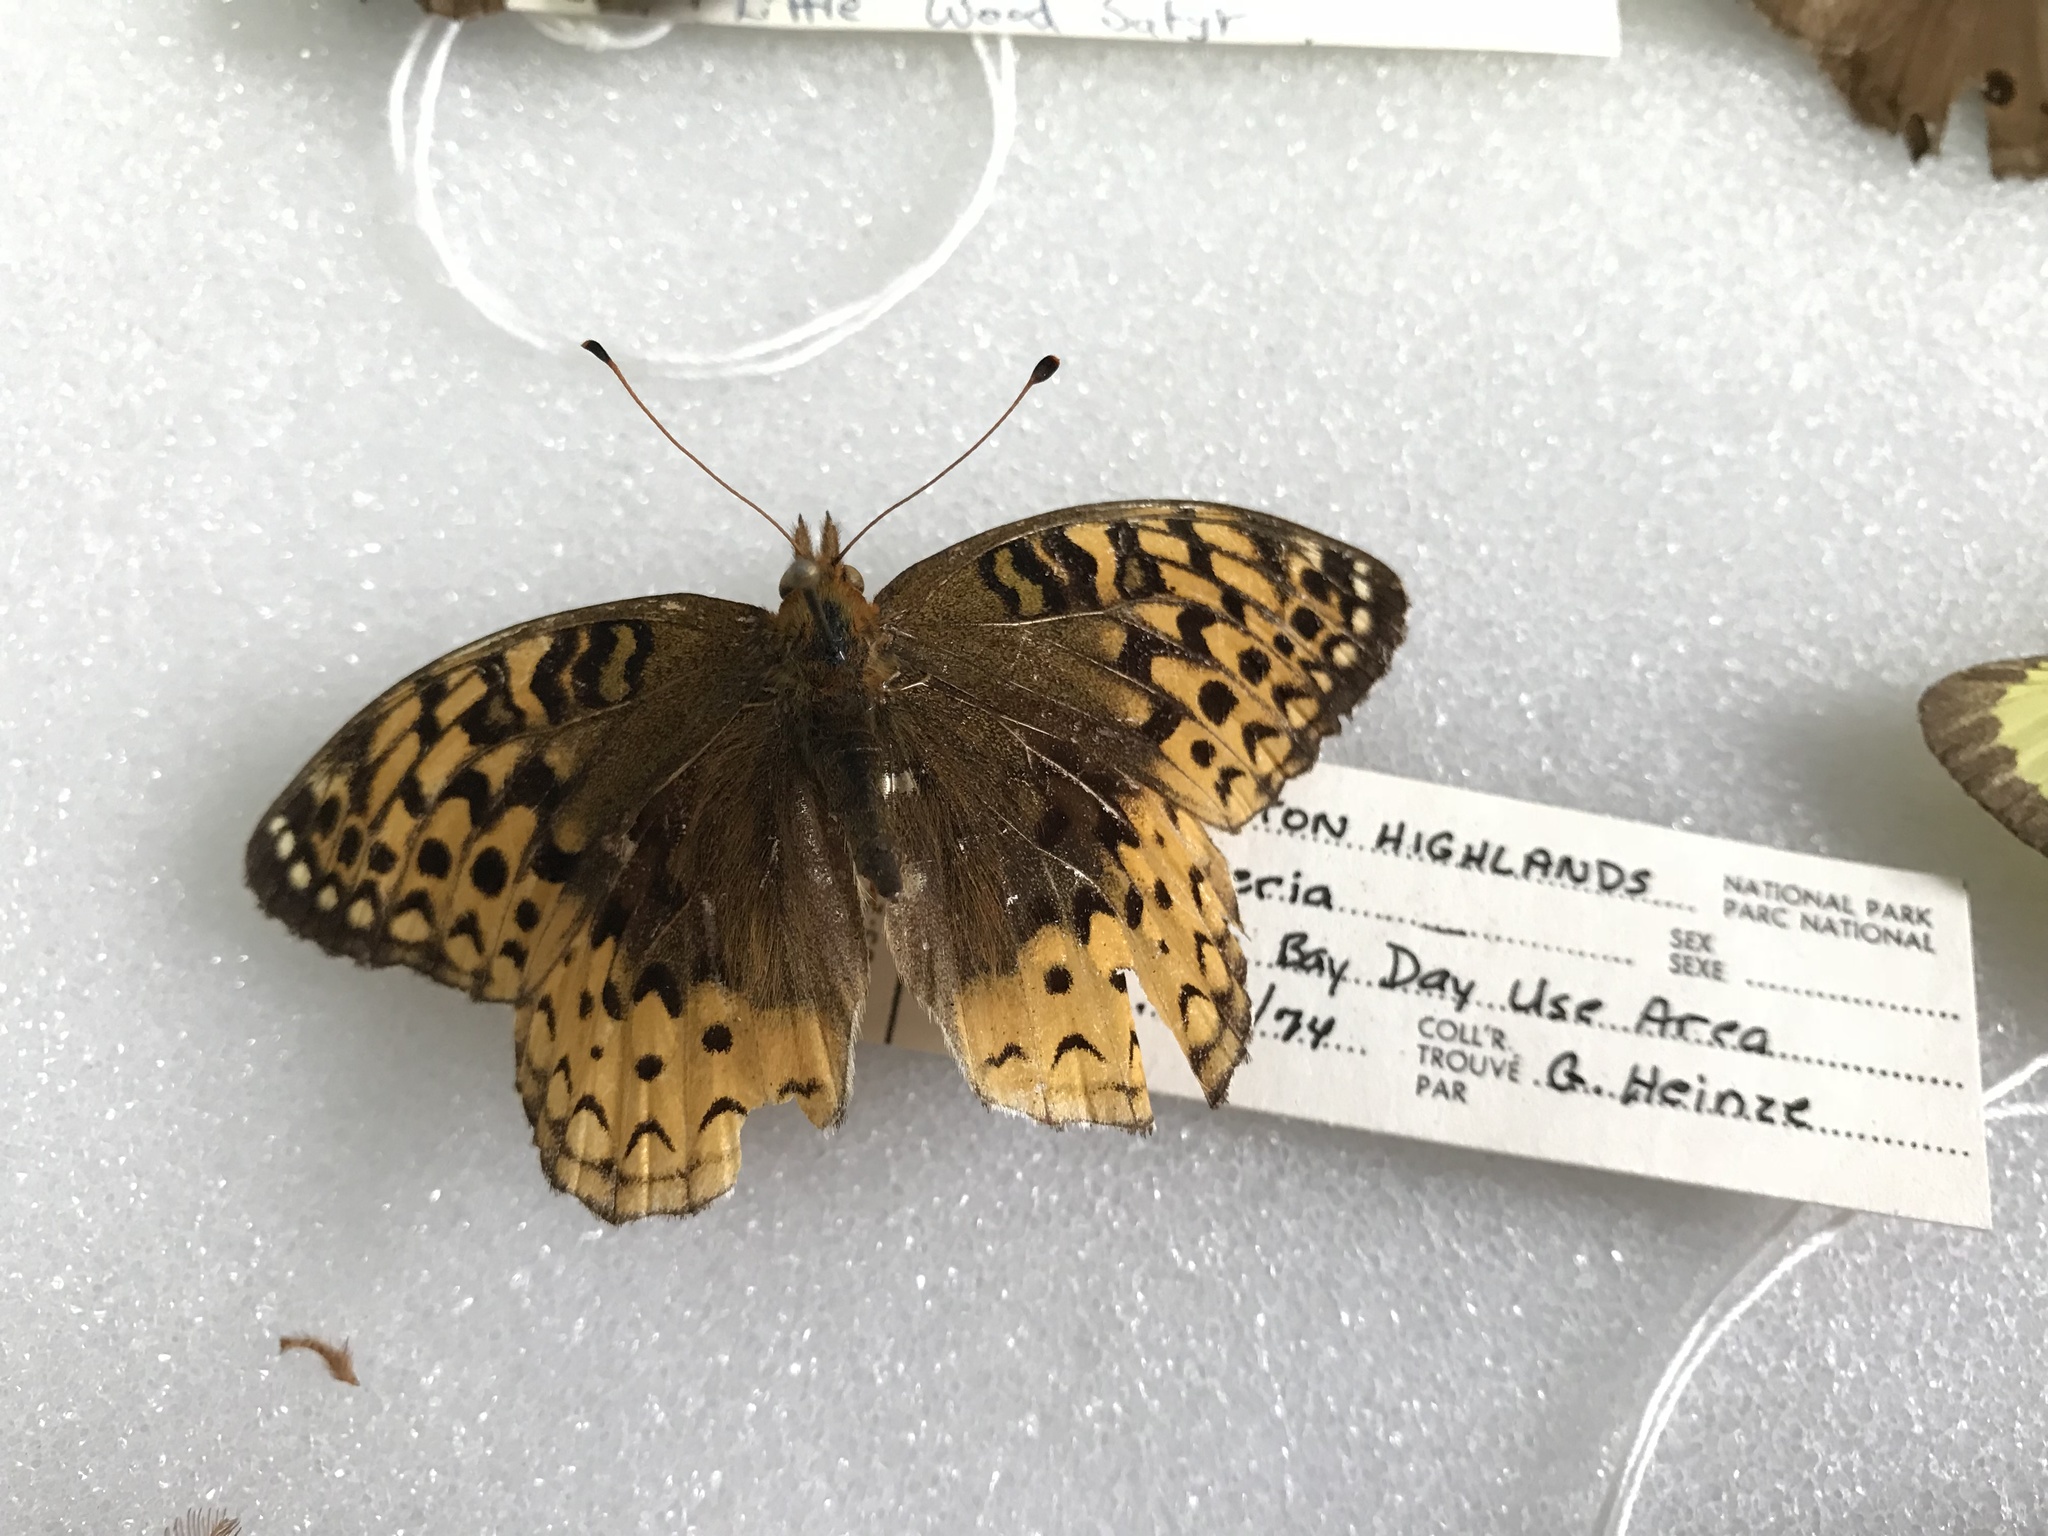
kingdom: Animalia
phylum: Arthropoda
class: Insecta
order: Lepidoptera
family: Nymphalidae
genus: Speyeria
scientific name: Speyeria cybele
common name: Great spangled fritillary
